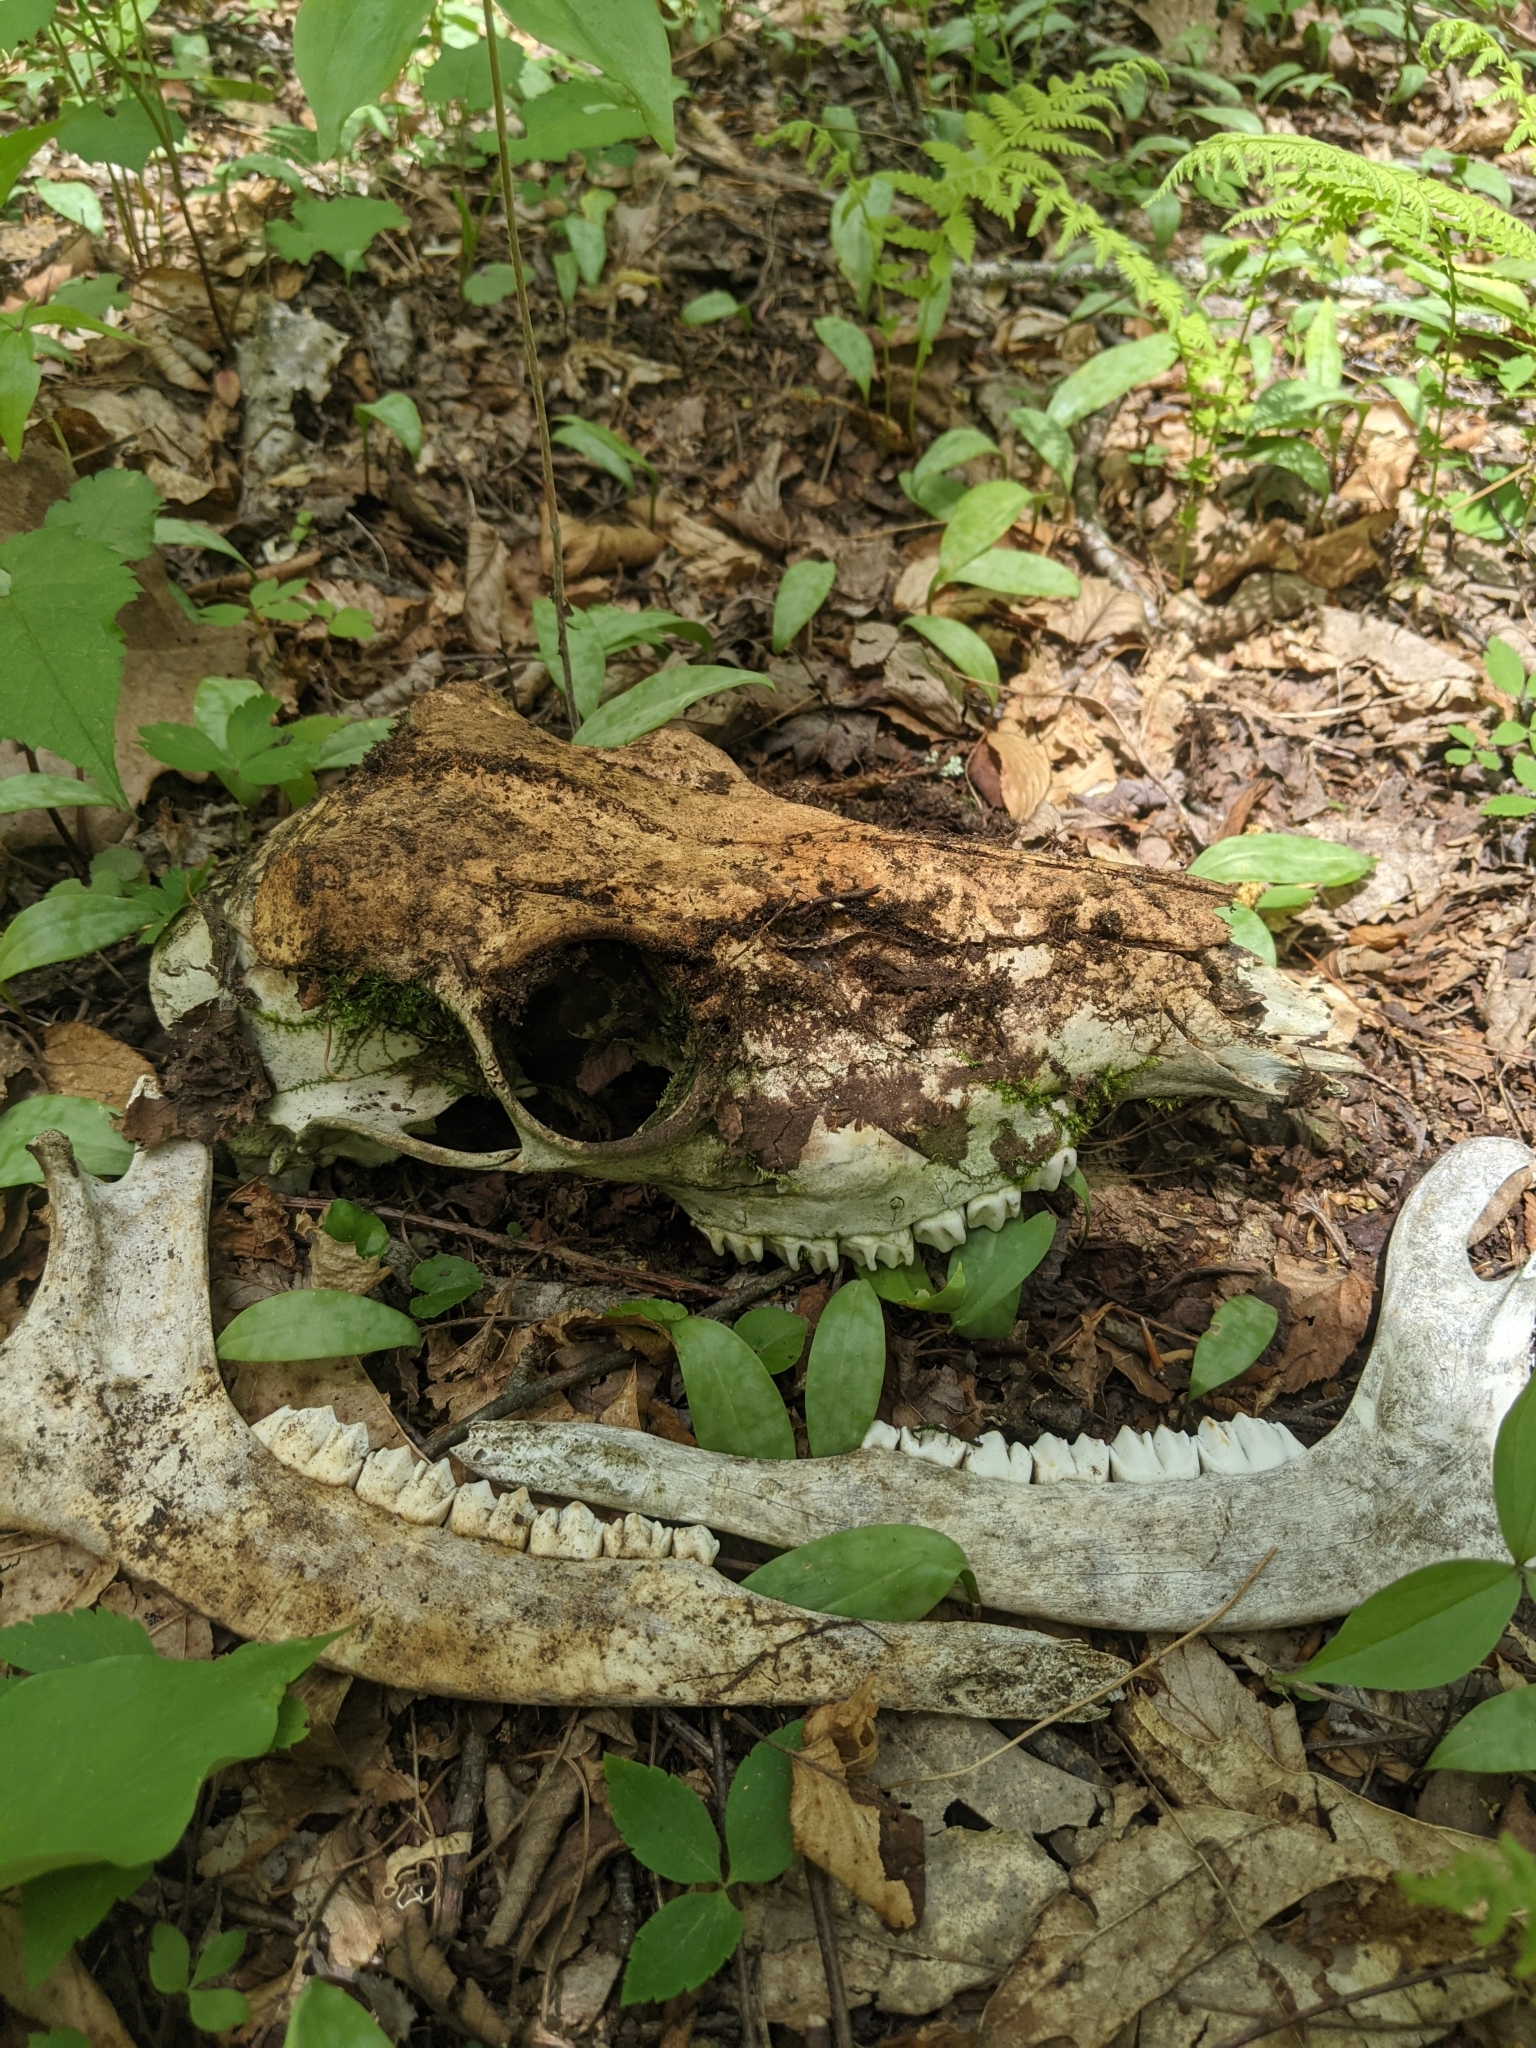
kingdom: Animalia
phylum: Chordata
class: Mammalia
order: Artiodactyla
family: Cervidae
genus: Odocoileus
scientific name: Odocoileus virginianus
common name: White-tailed deer
